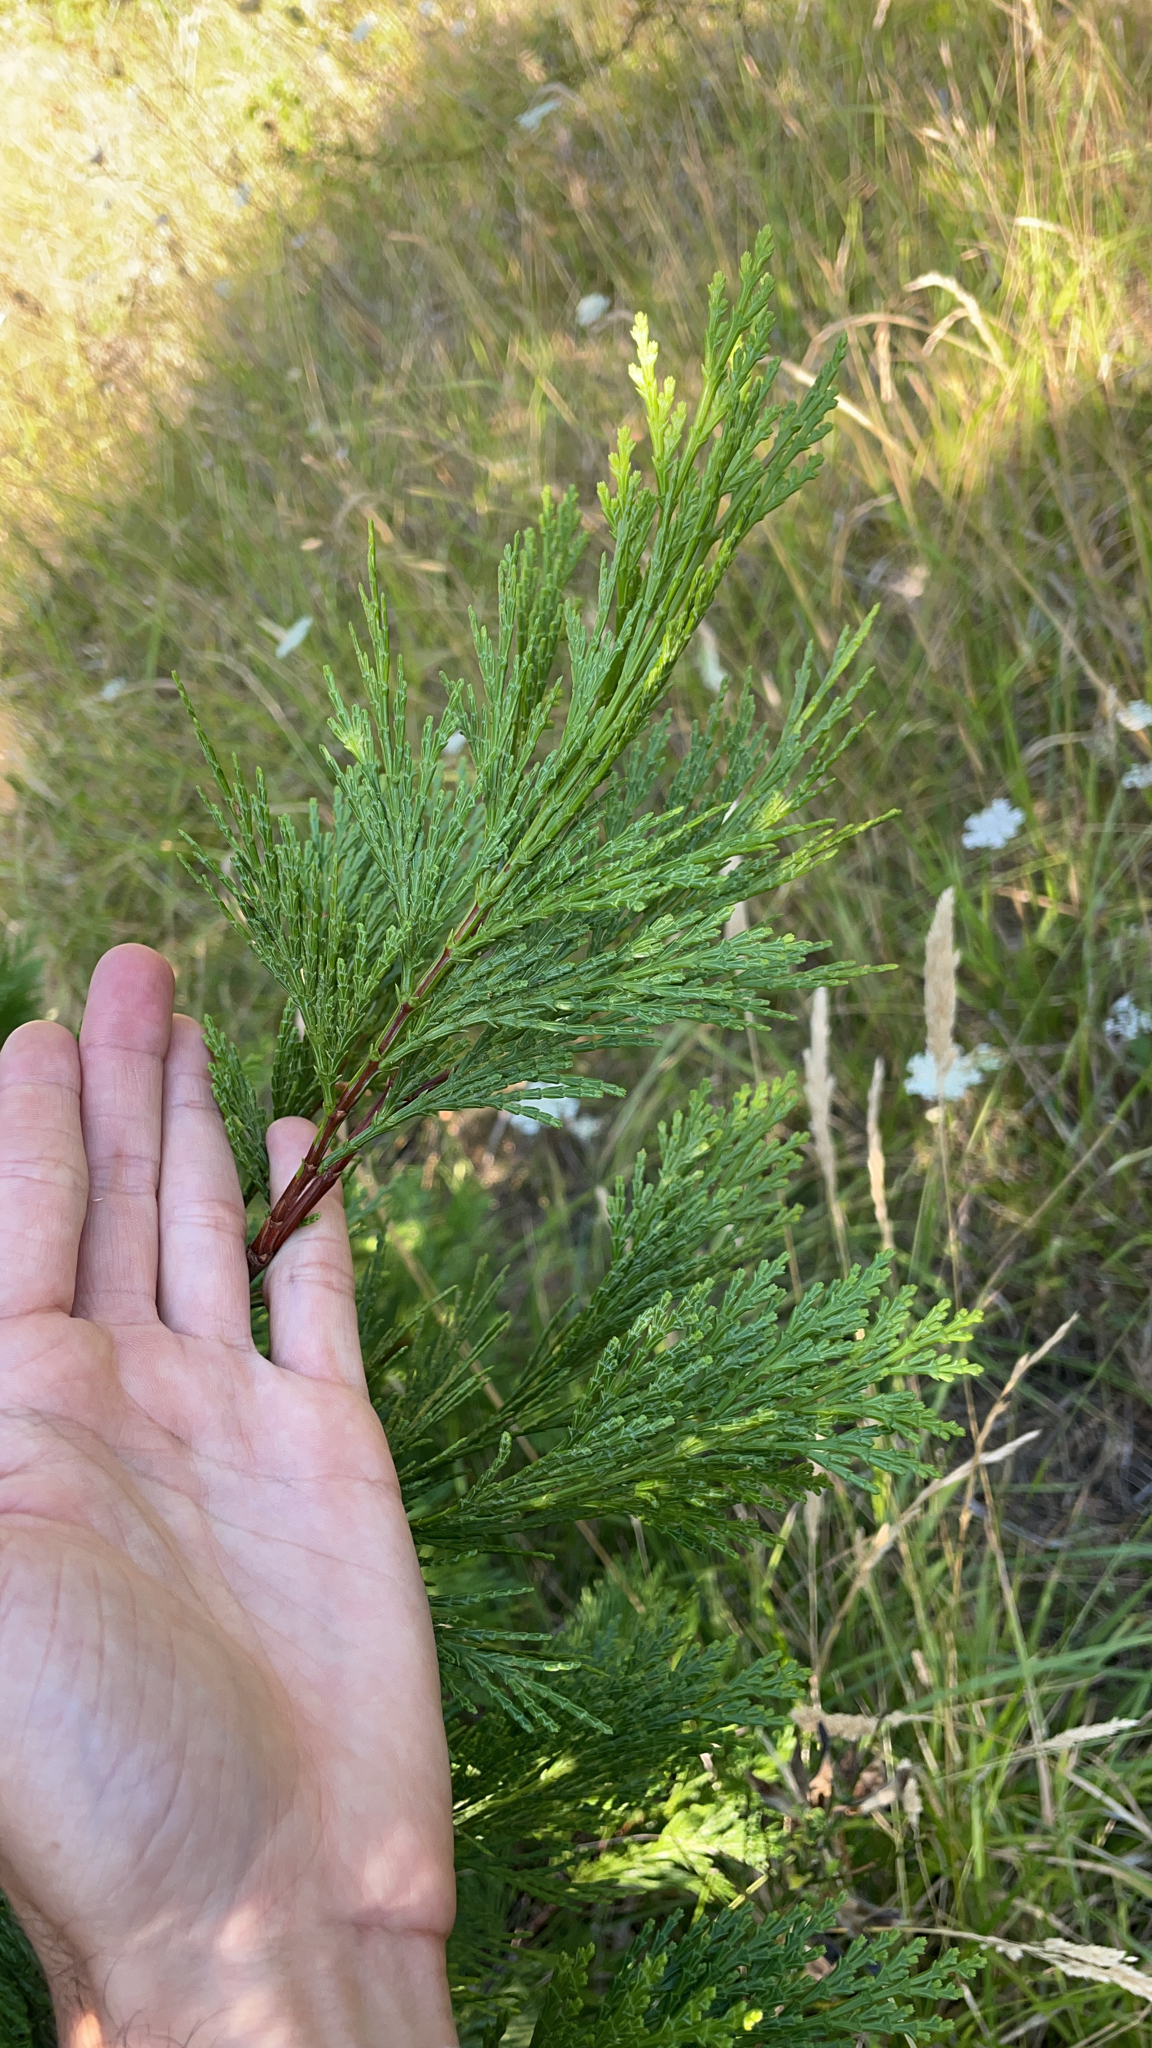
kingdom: Plantae
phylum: Tracheophyta
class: Pinopsida
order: Pinales
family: Cupressaceae
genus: Calocedrus
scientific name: Calocedrus decurrens
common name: Californian incense-cedar
